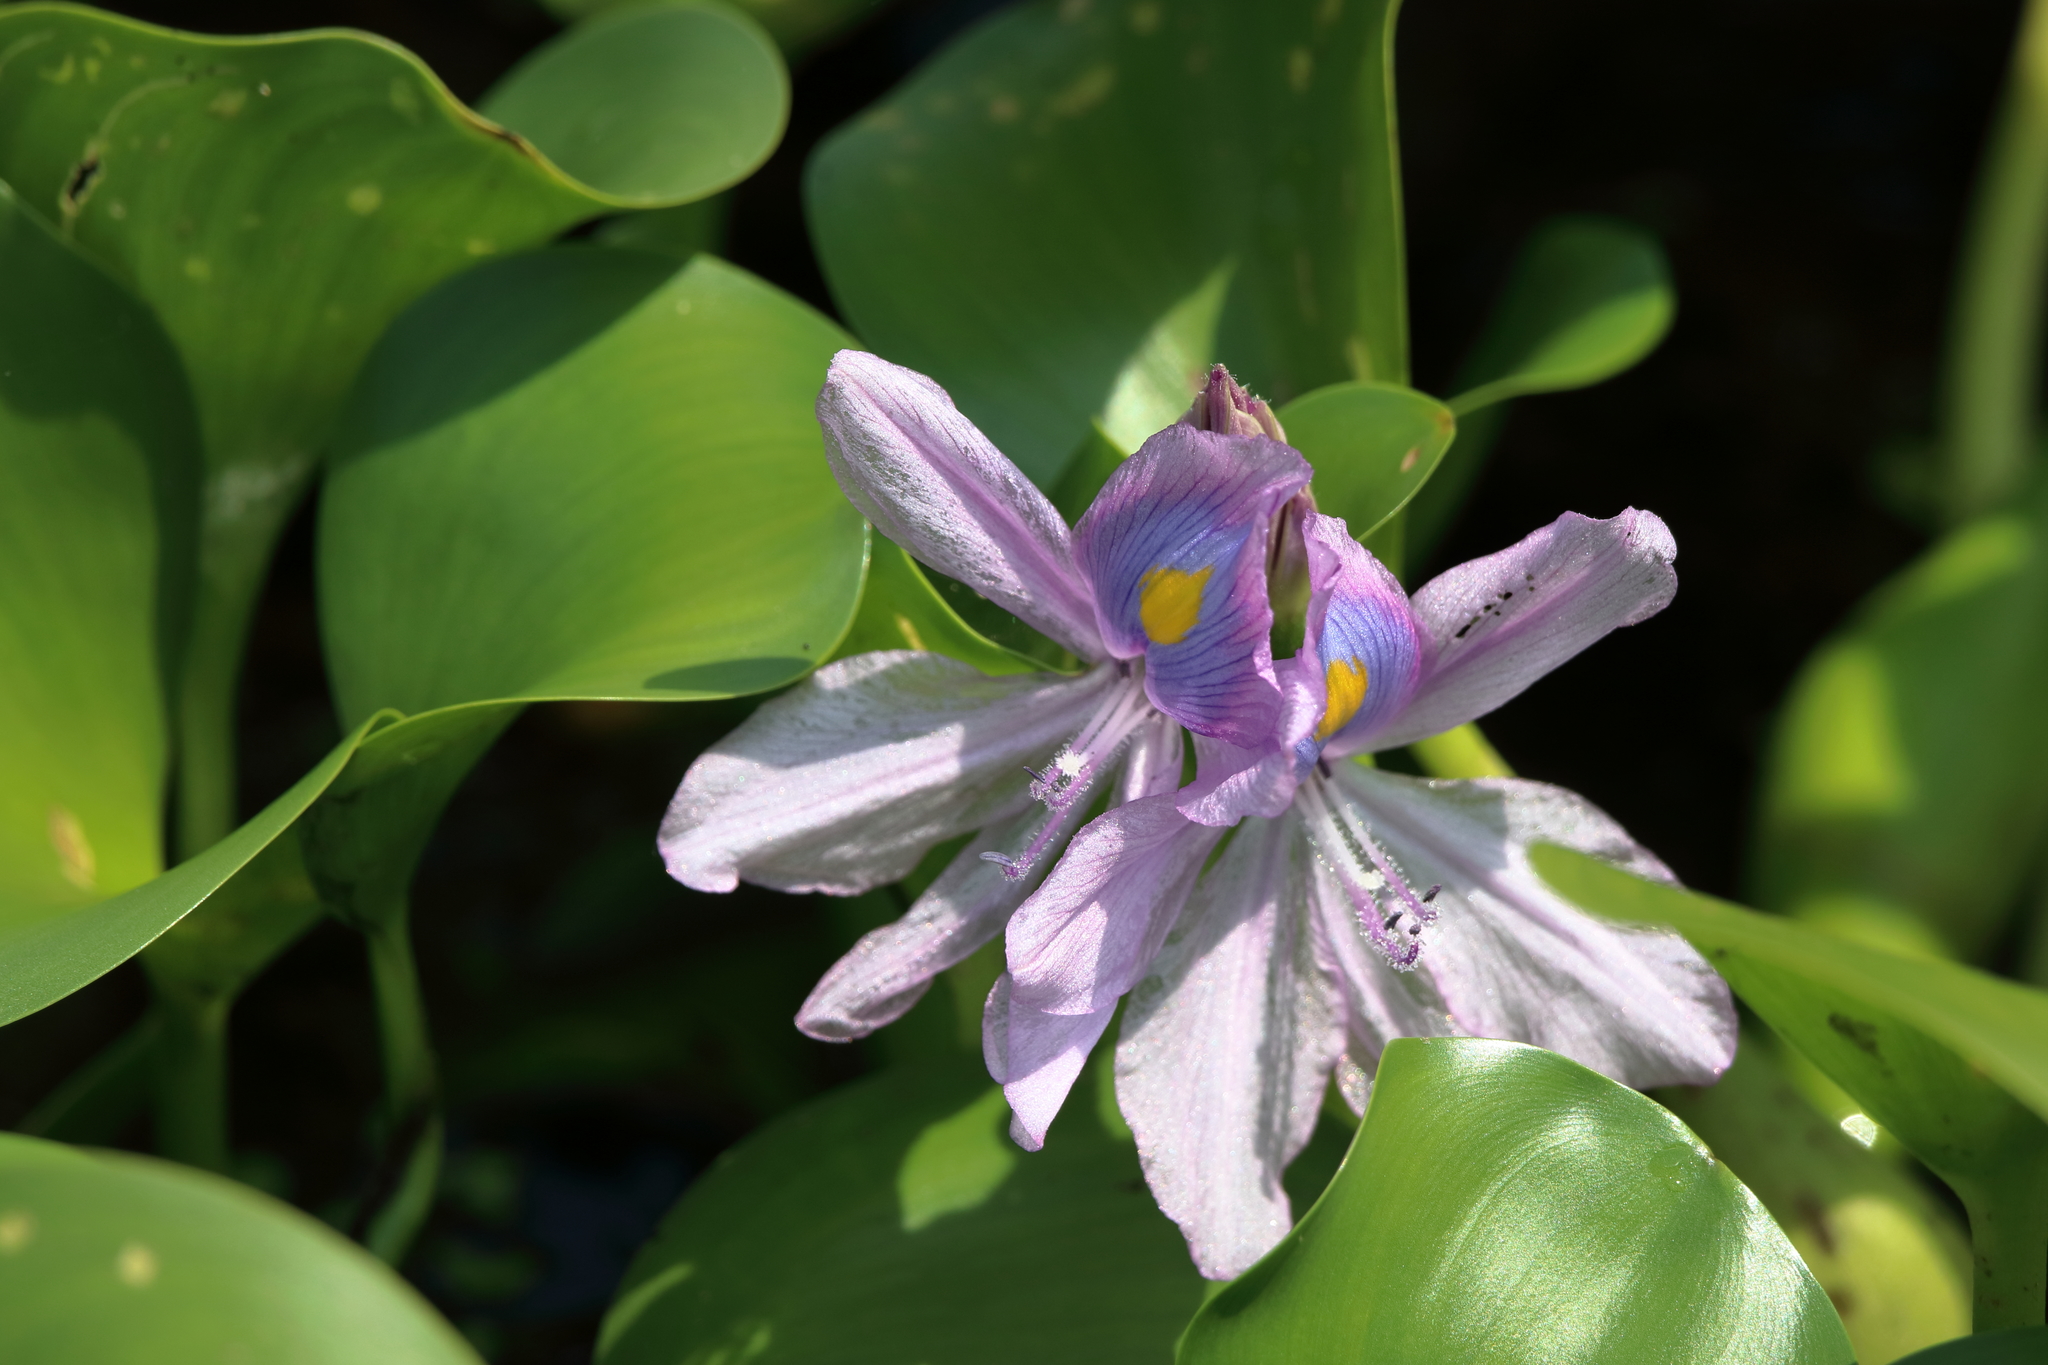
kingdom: Plantae
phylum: Tracheophyta
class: Liliopsida
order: Commelinales
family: Pontederiaceae
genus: Pontederia
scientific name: Pontederia crassipes
